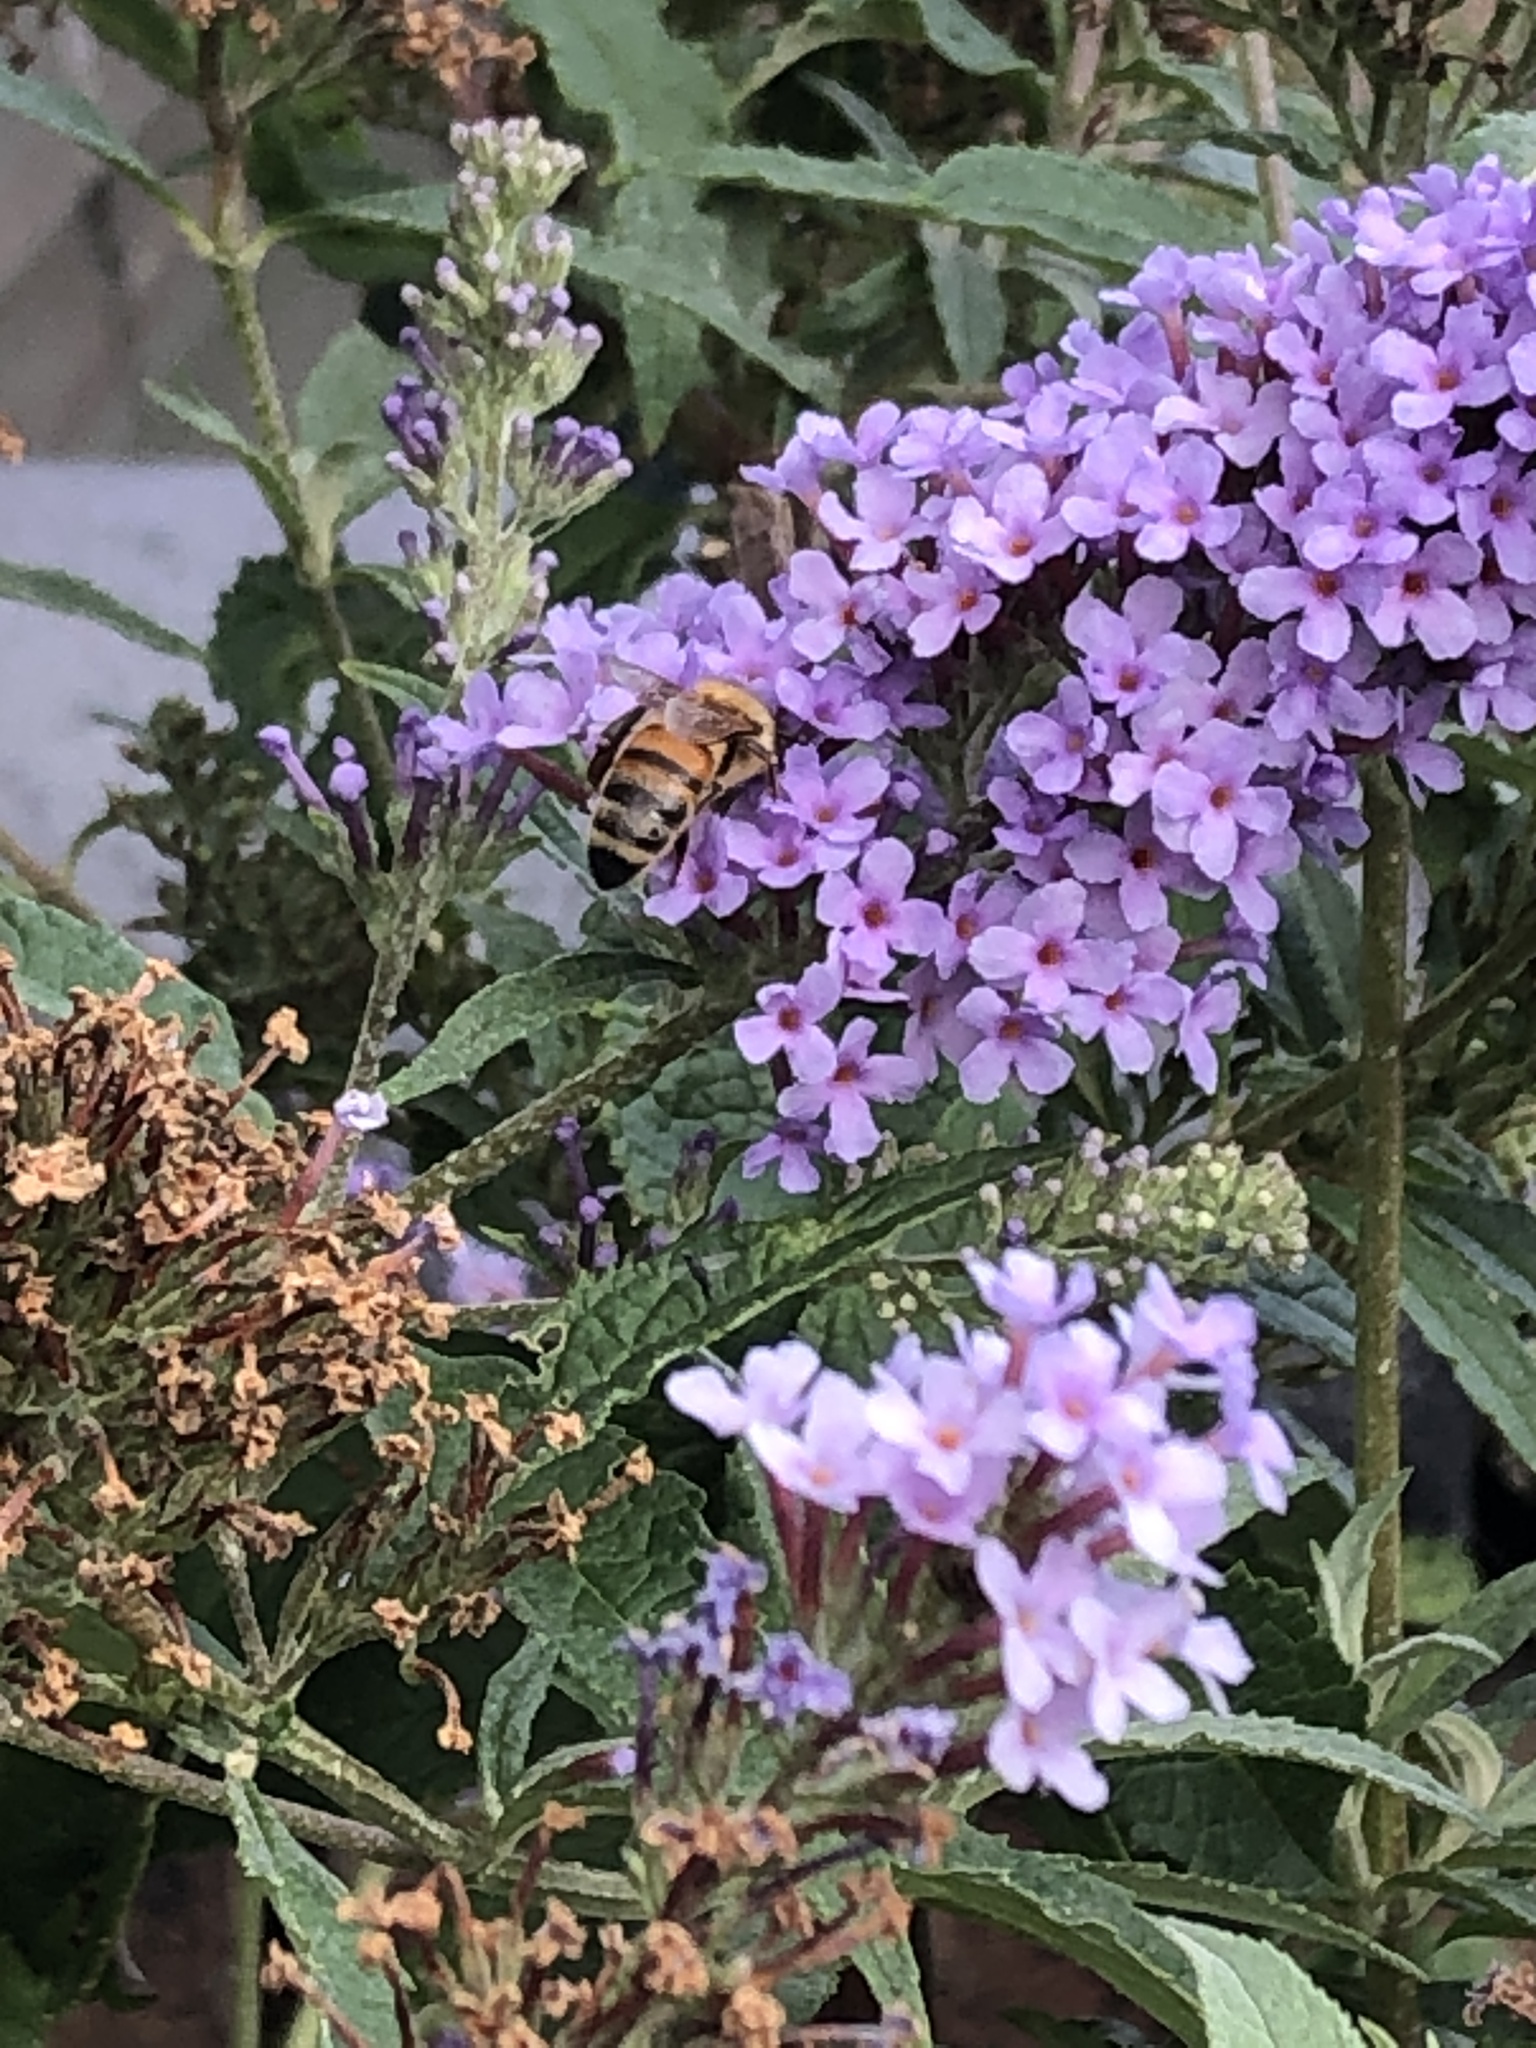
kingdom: Animalia
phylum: Arthropoda
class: Insecta
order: Hymenoptera
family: Apidae
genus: Apis
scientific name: Apis mellifera
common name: Honey bee
